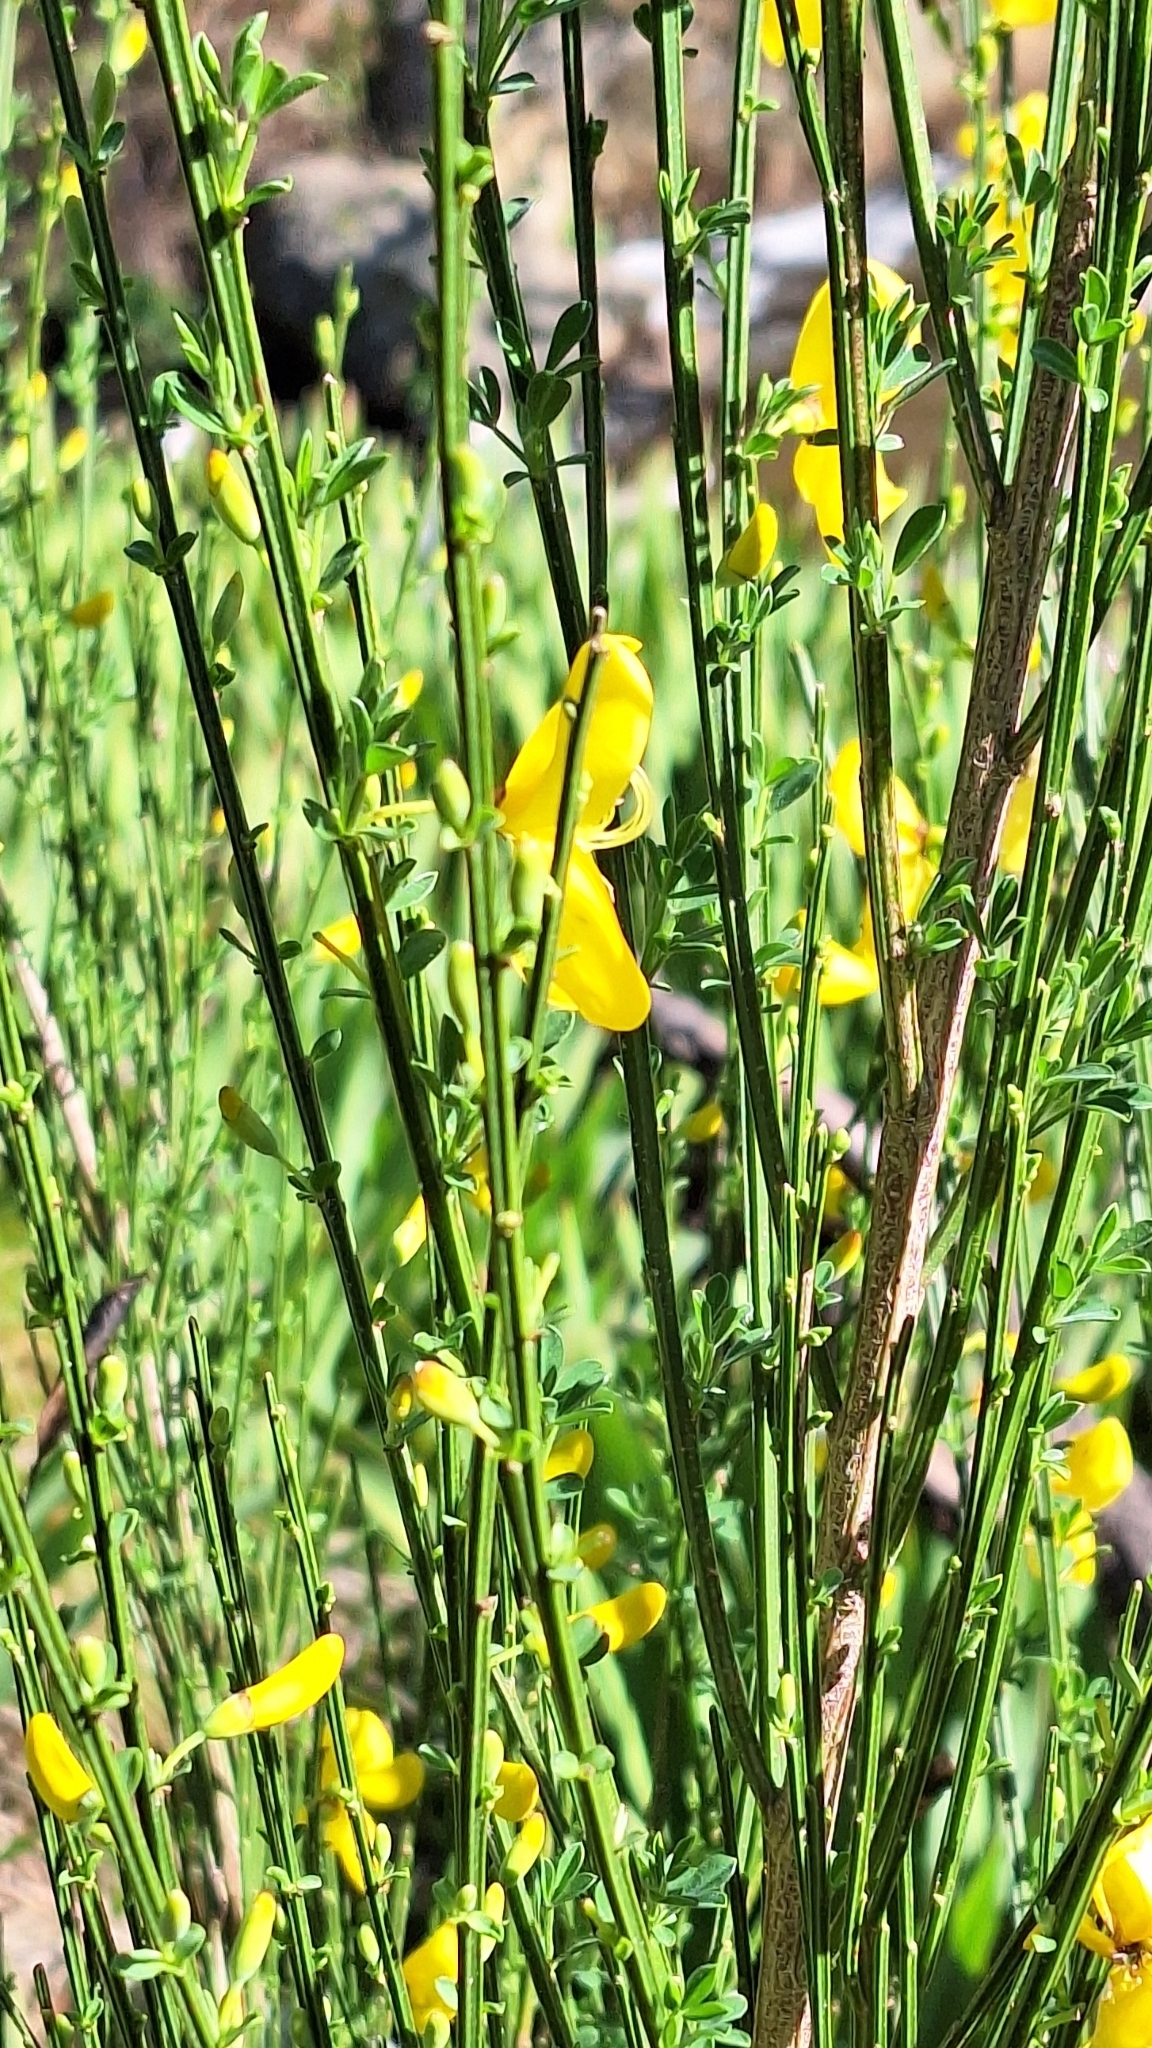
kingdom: Plantae
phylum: Tracheophyta
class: Magnoliopsida
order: Fabales
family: Fabaceae
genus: Cytisus
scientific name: Cytisus scoparius
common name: Scotch broom
